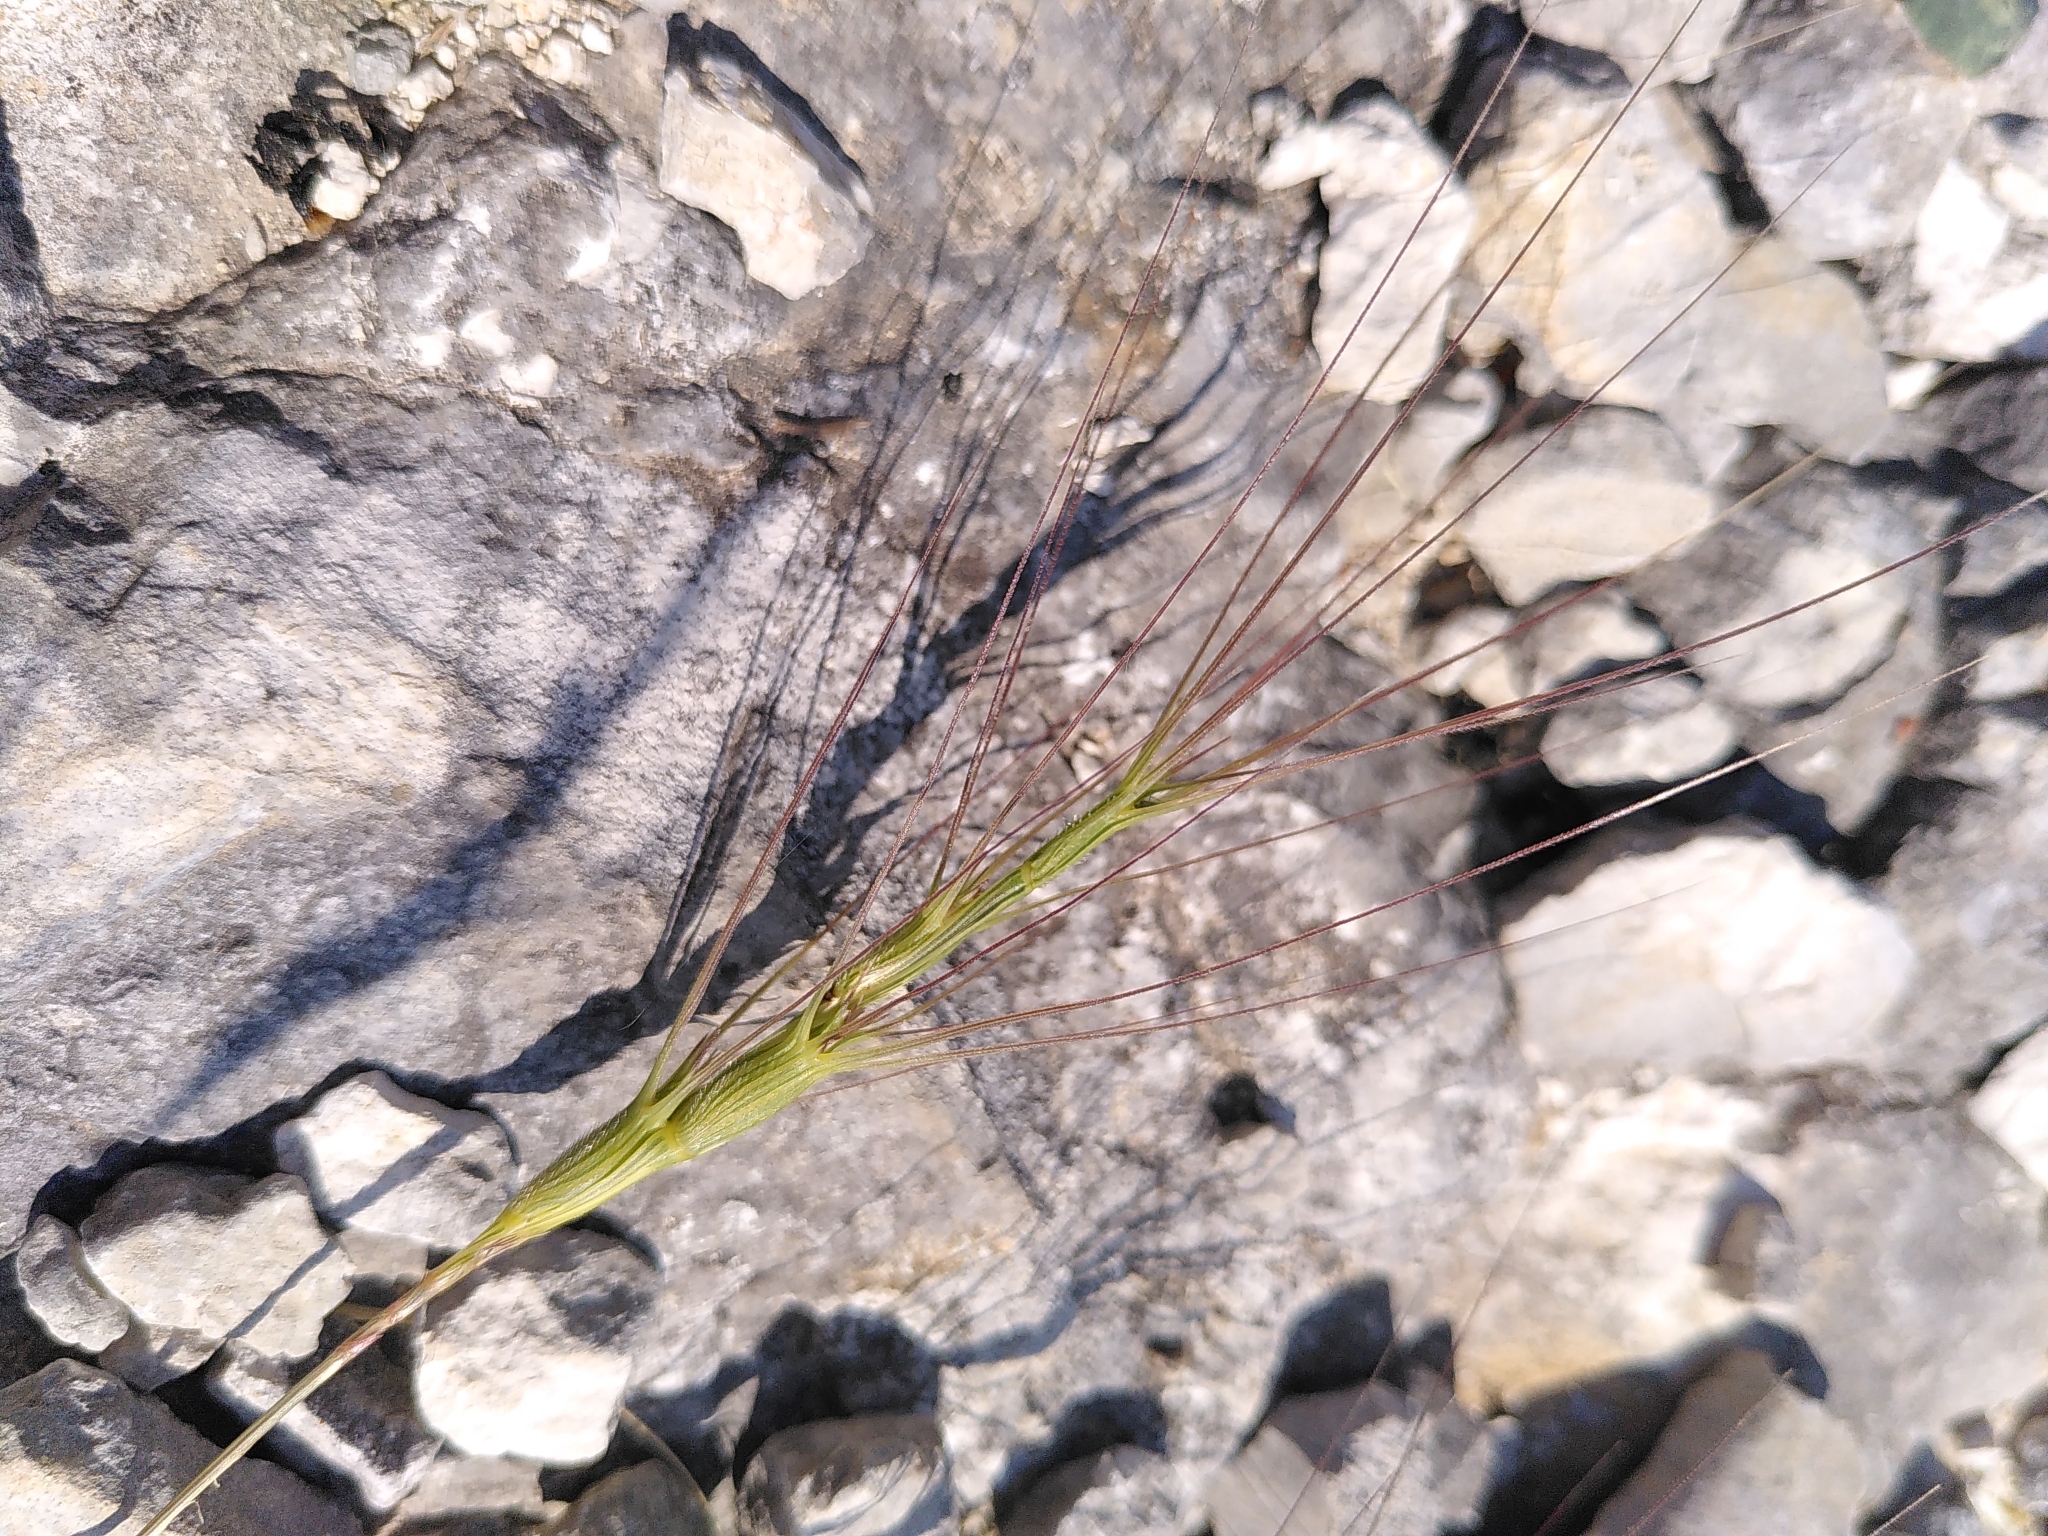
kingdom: Plantae
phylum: Tracheophyta
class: Liliopsida
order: Poales
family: Poaceae
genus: Aegilops
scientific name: Aegilops triuncialis
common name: Barb goat grass
